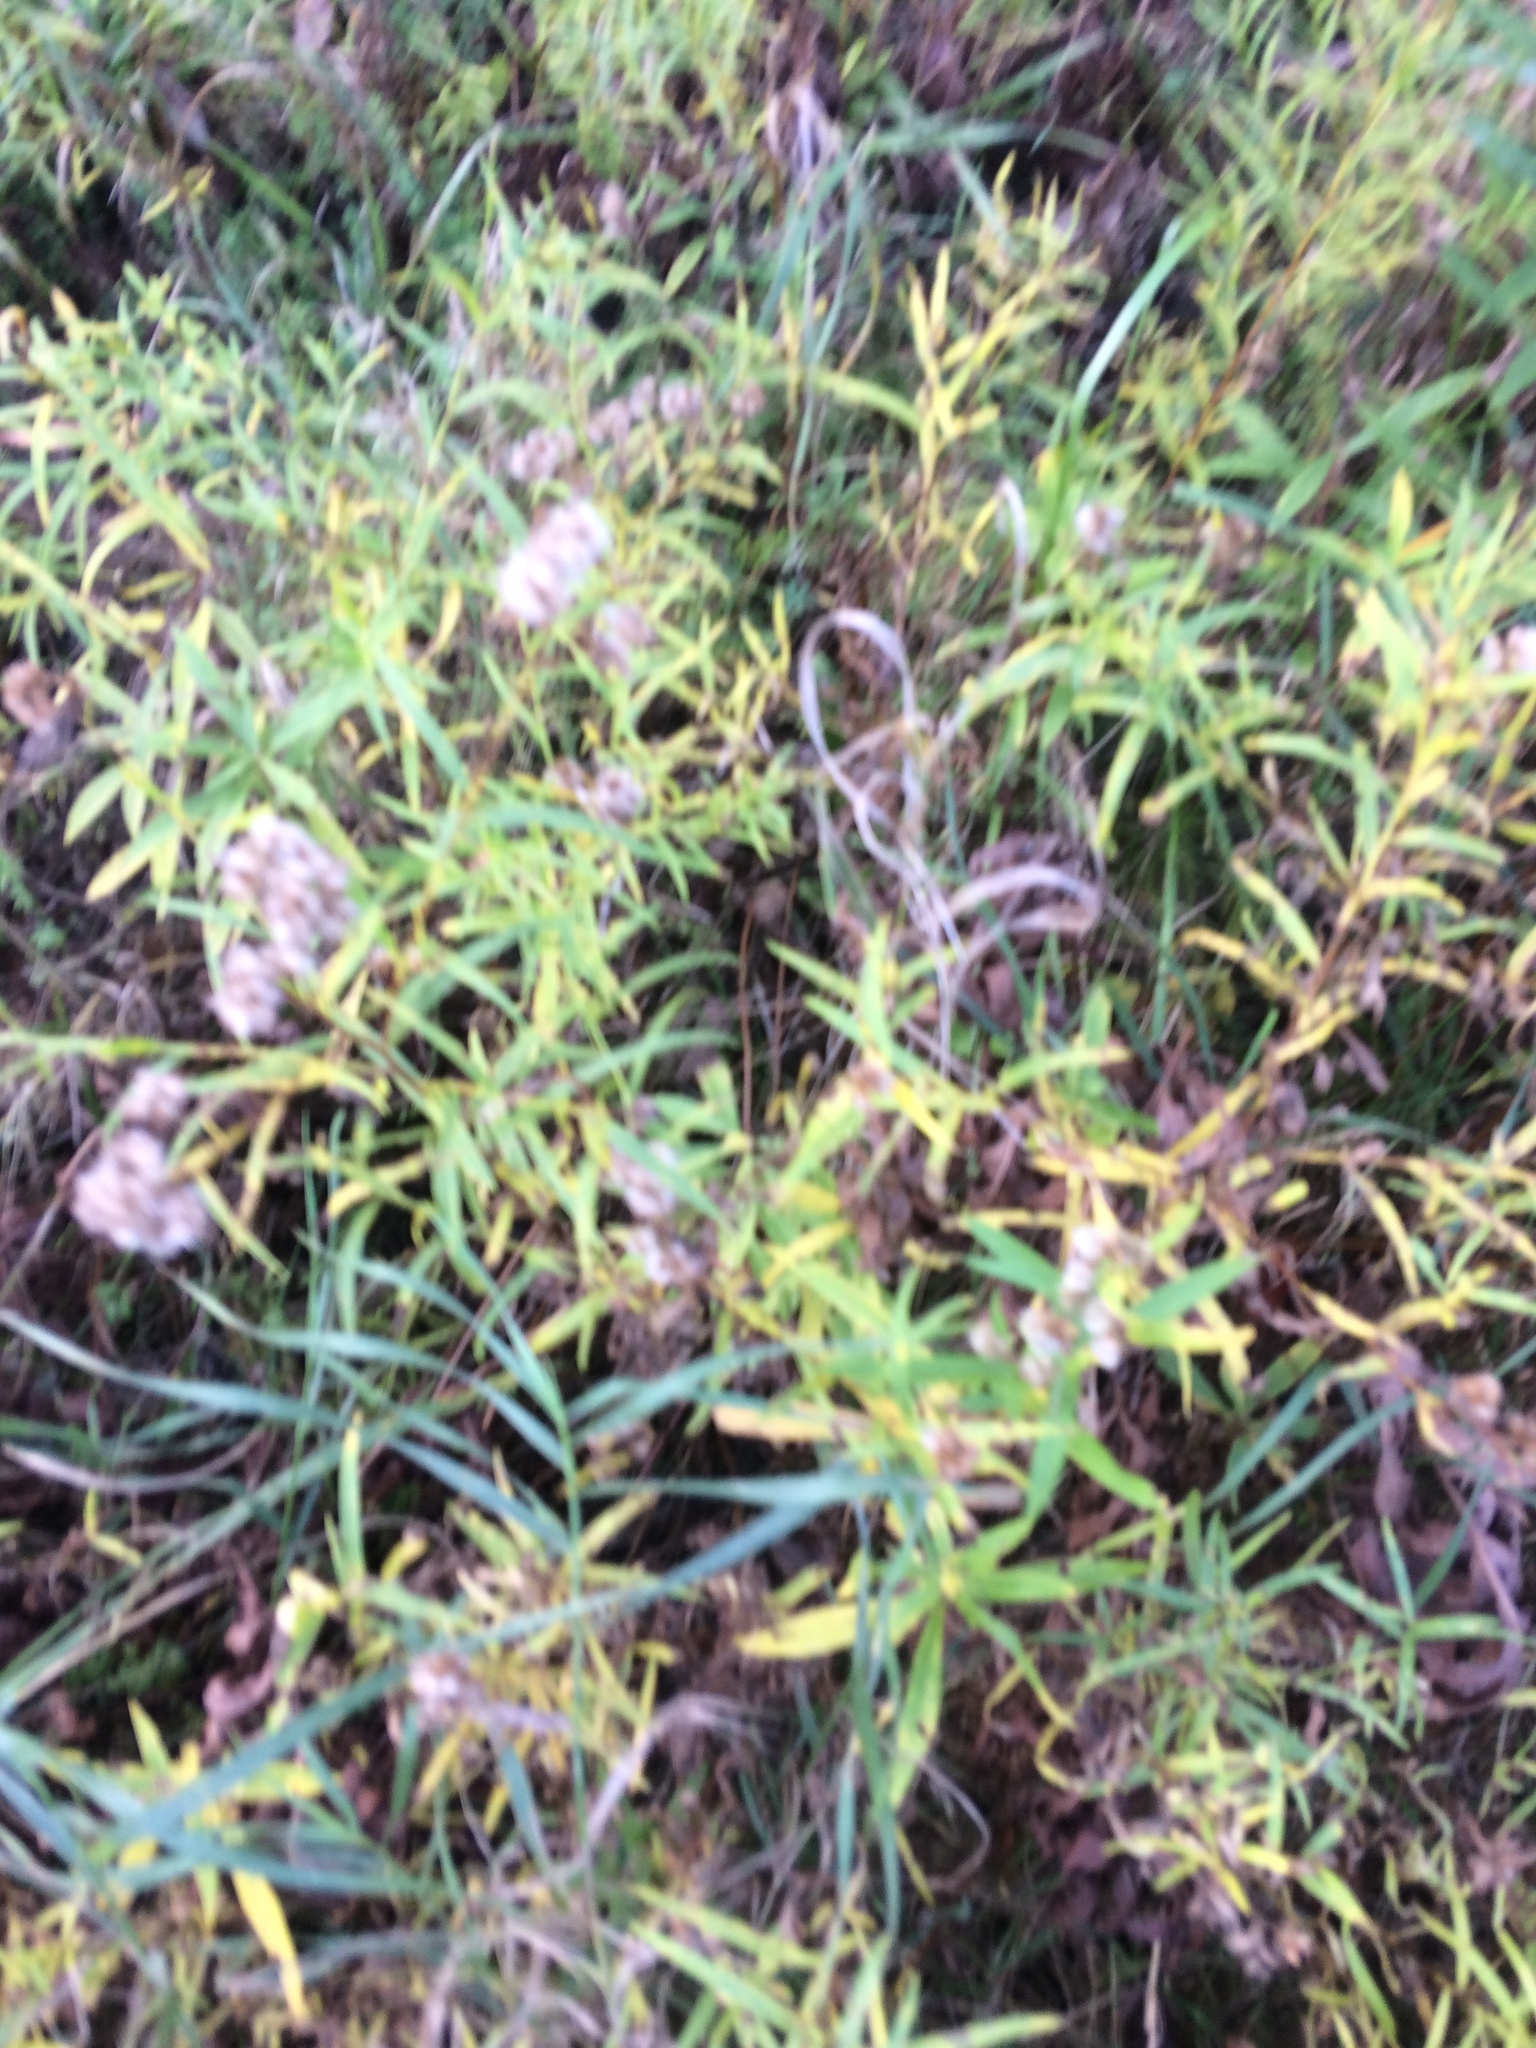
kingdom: Plantae
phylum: Tracheophyta
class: Magnoliopsida
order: Asterales
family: Asteraceae
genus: Euthamia
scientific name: Euthamia graminifolia
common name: Common goldentop
